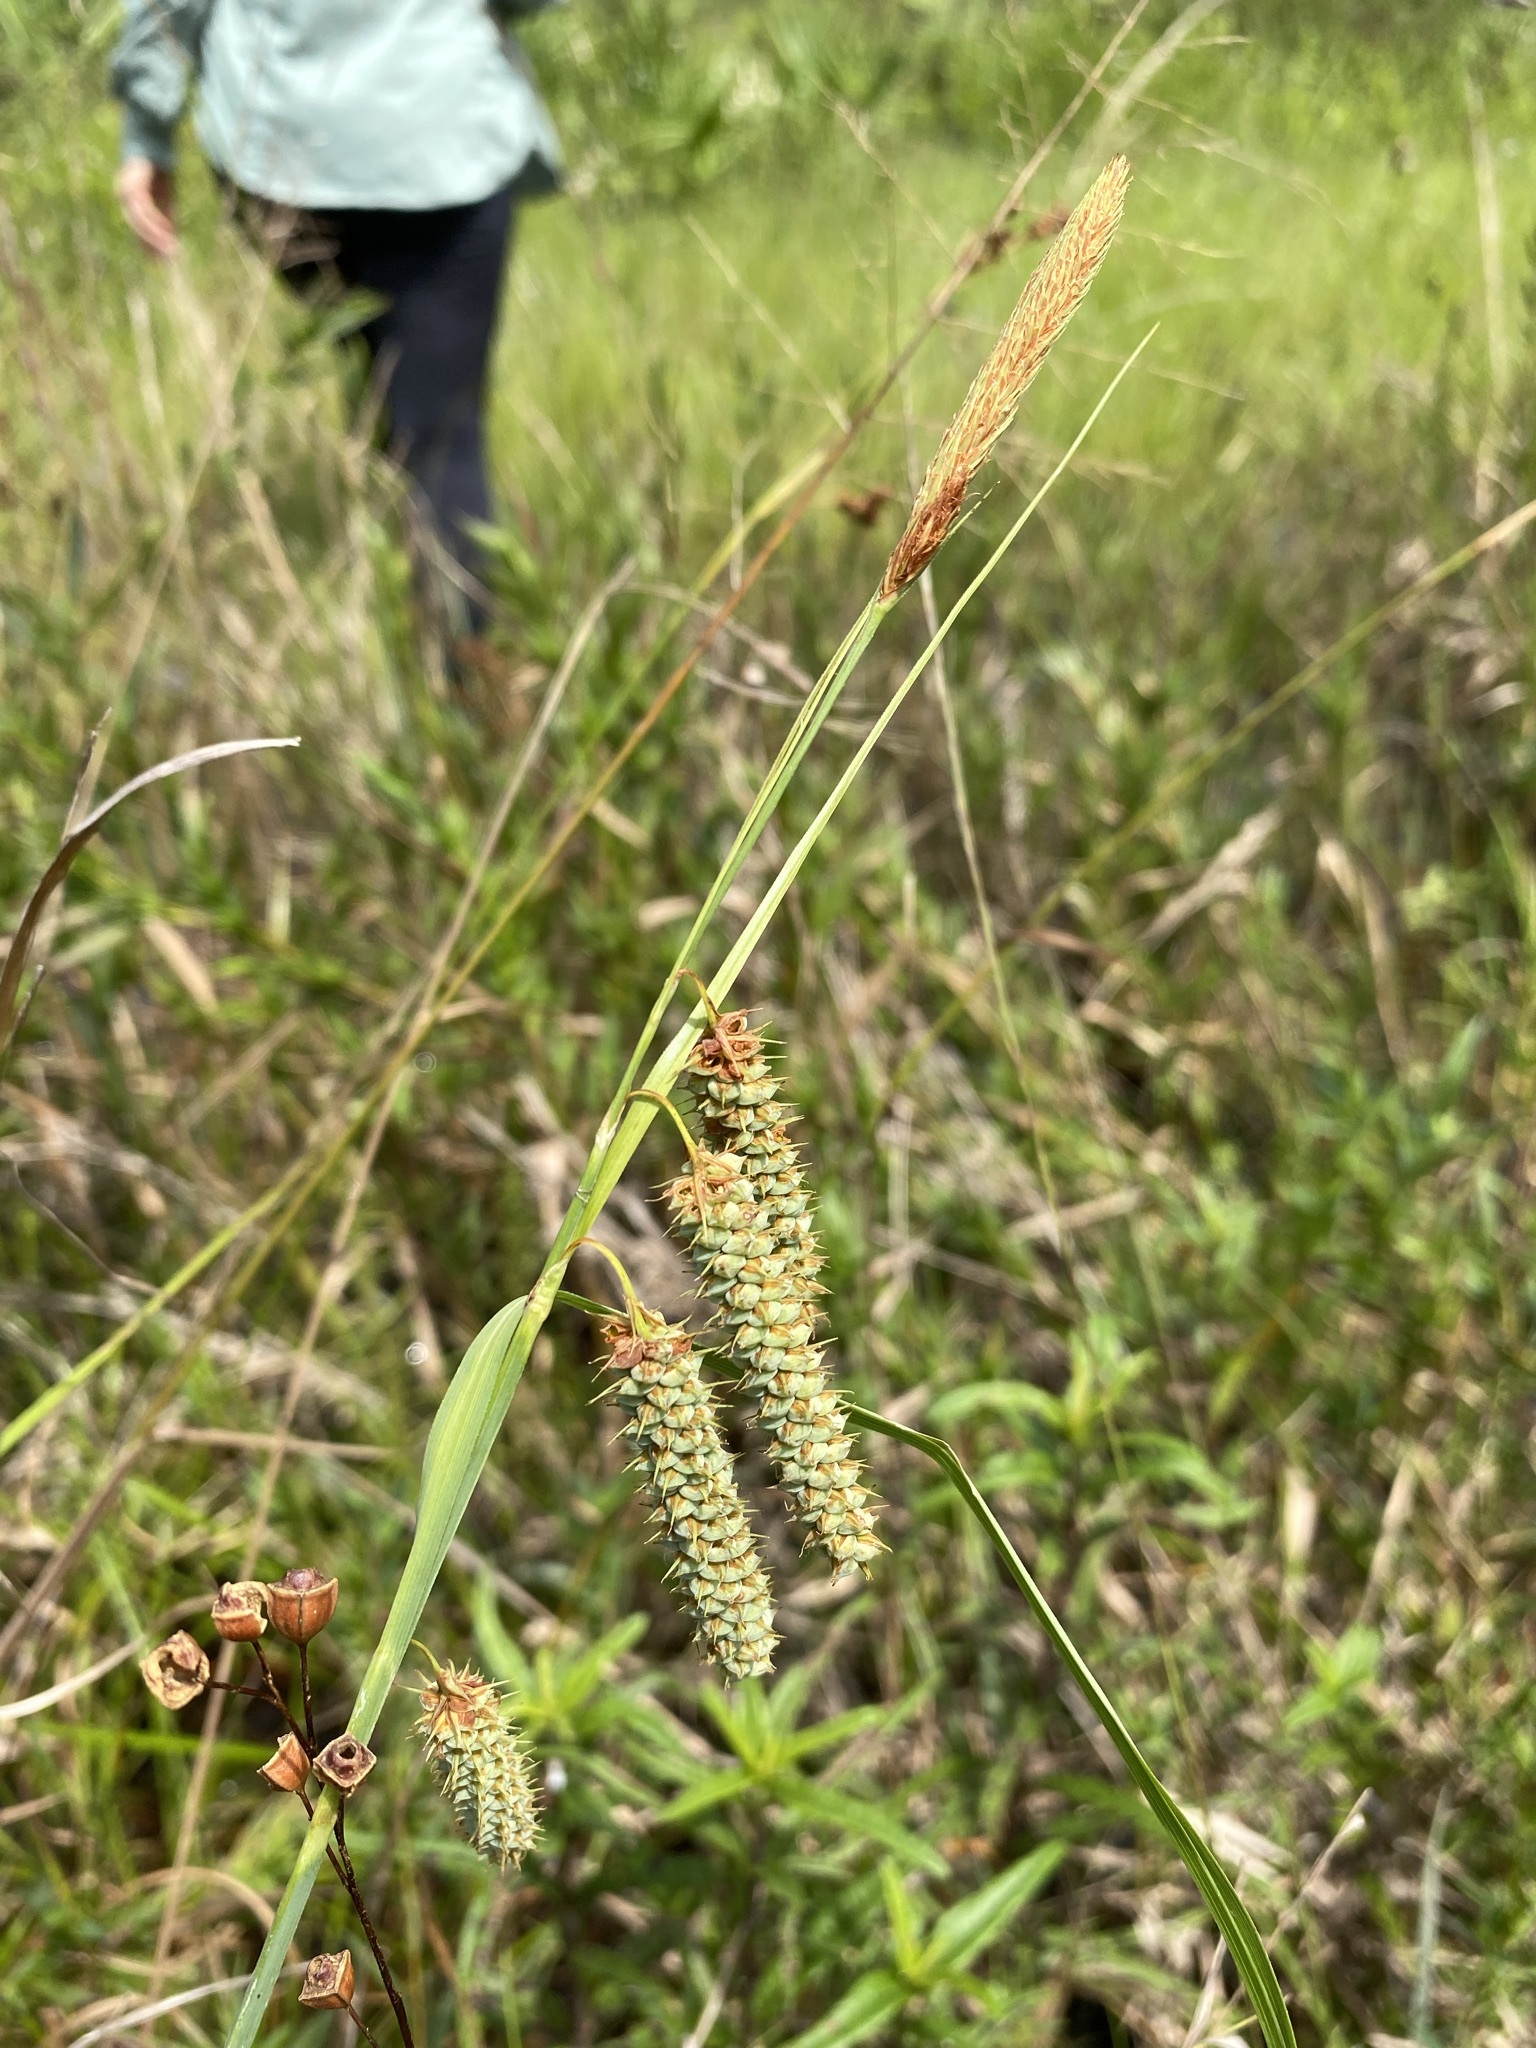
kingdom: Plantae
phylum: Tracheophyta
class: Liliopsida
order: Poales
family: Cyperaceae
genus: Carex
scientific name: Carex glaucescens
